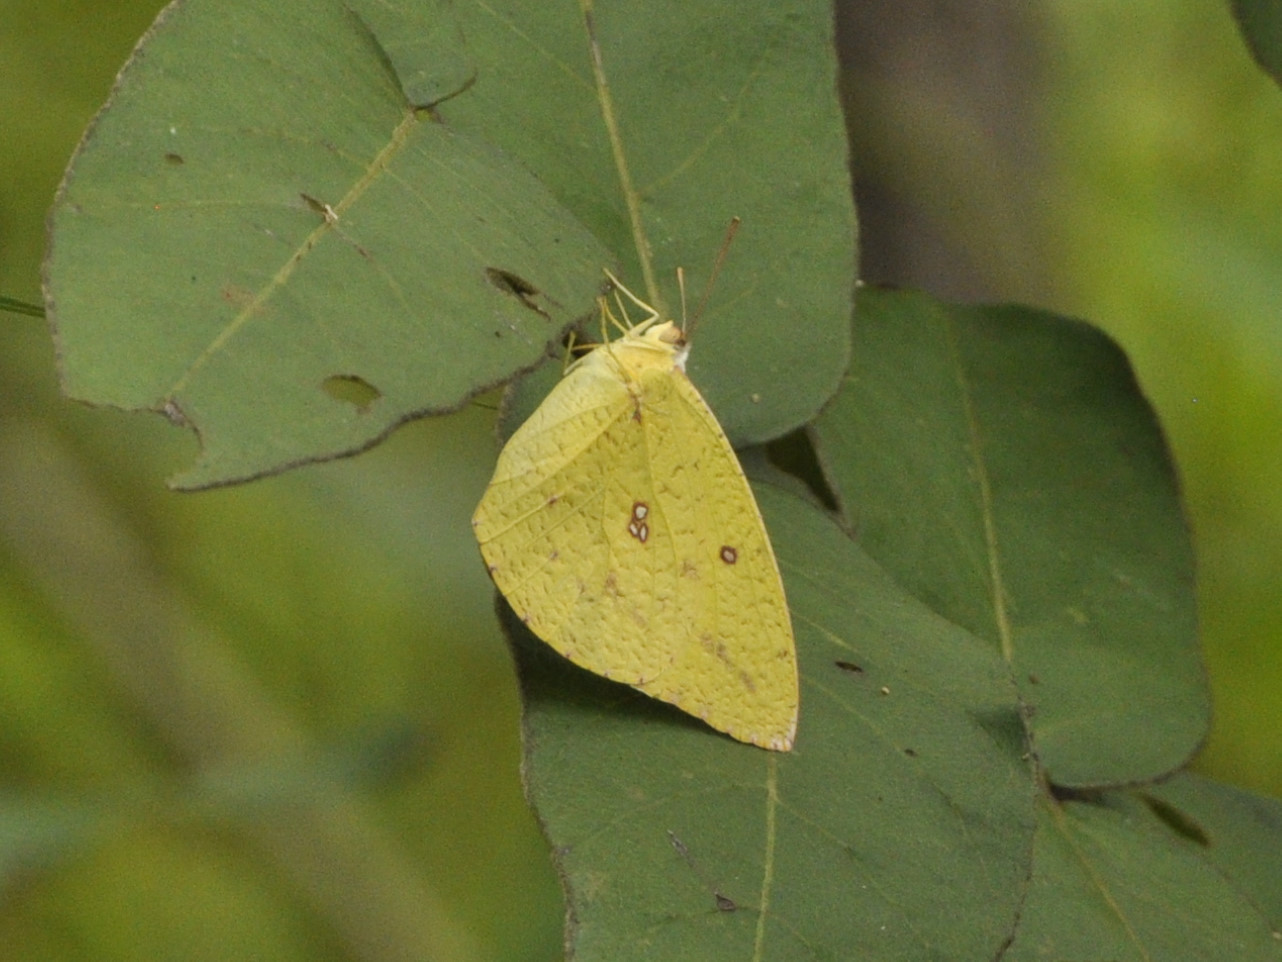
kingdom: Animalia
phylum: Arthropoda
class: Insecta
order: Lepidoptera
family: Pieridae
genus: Catopsilia
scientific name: Catopsilia florella
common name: African migrant
